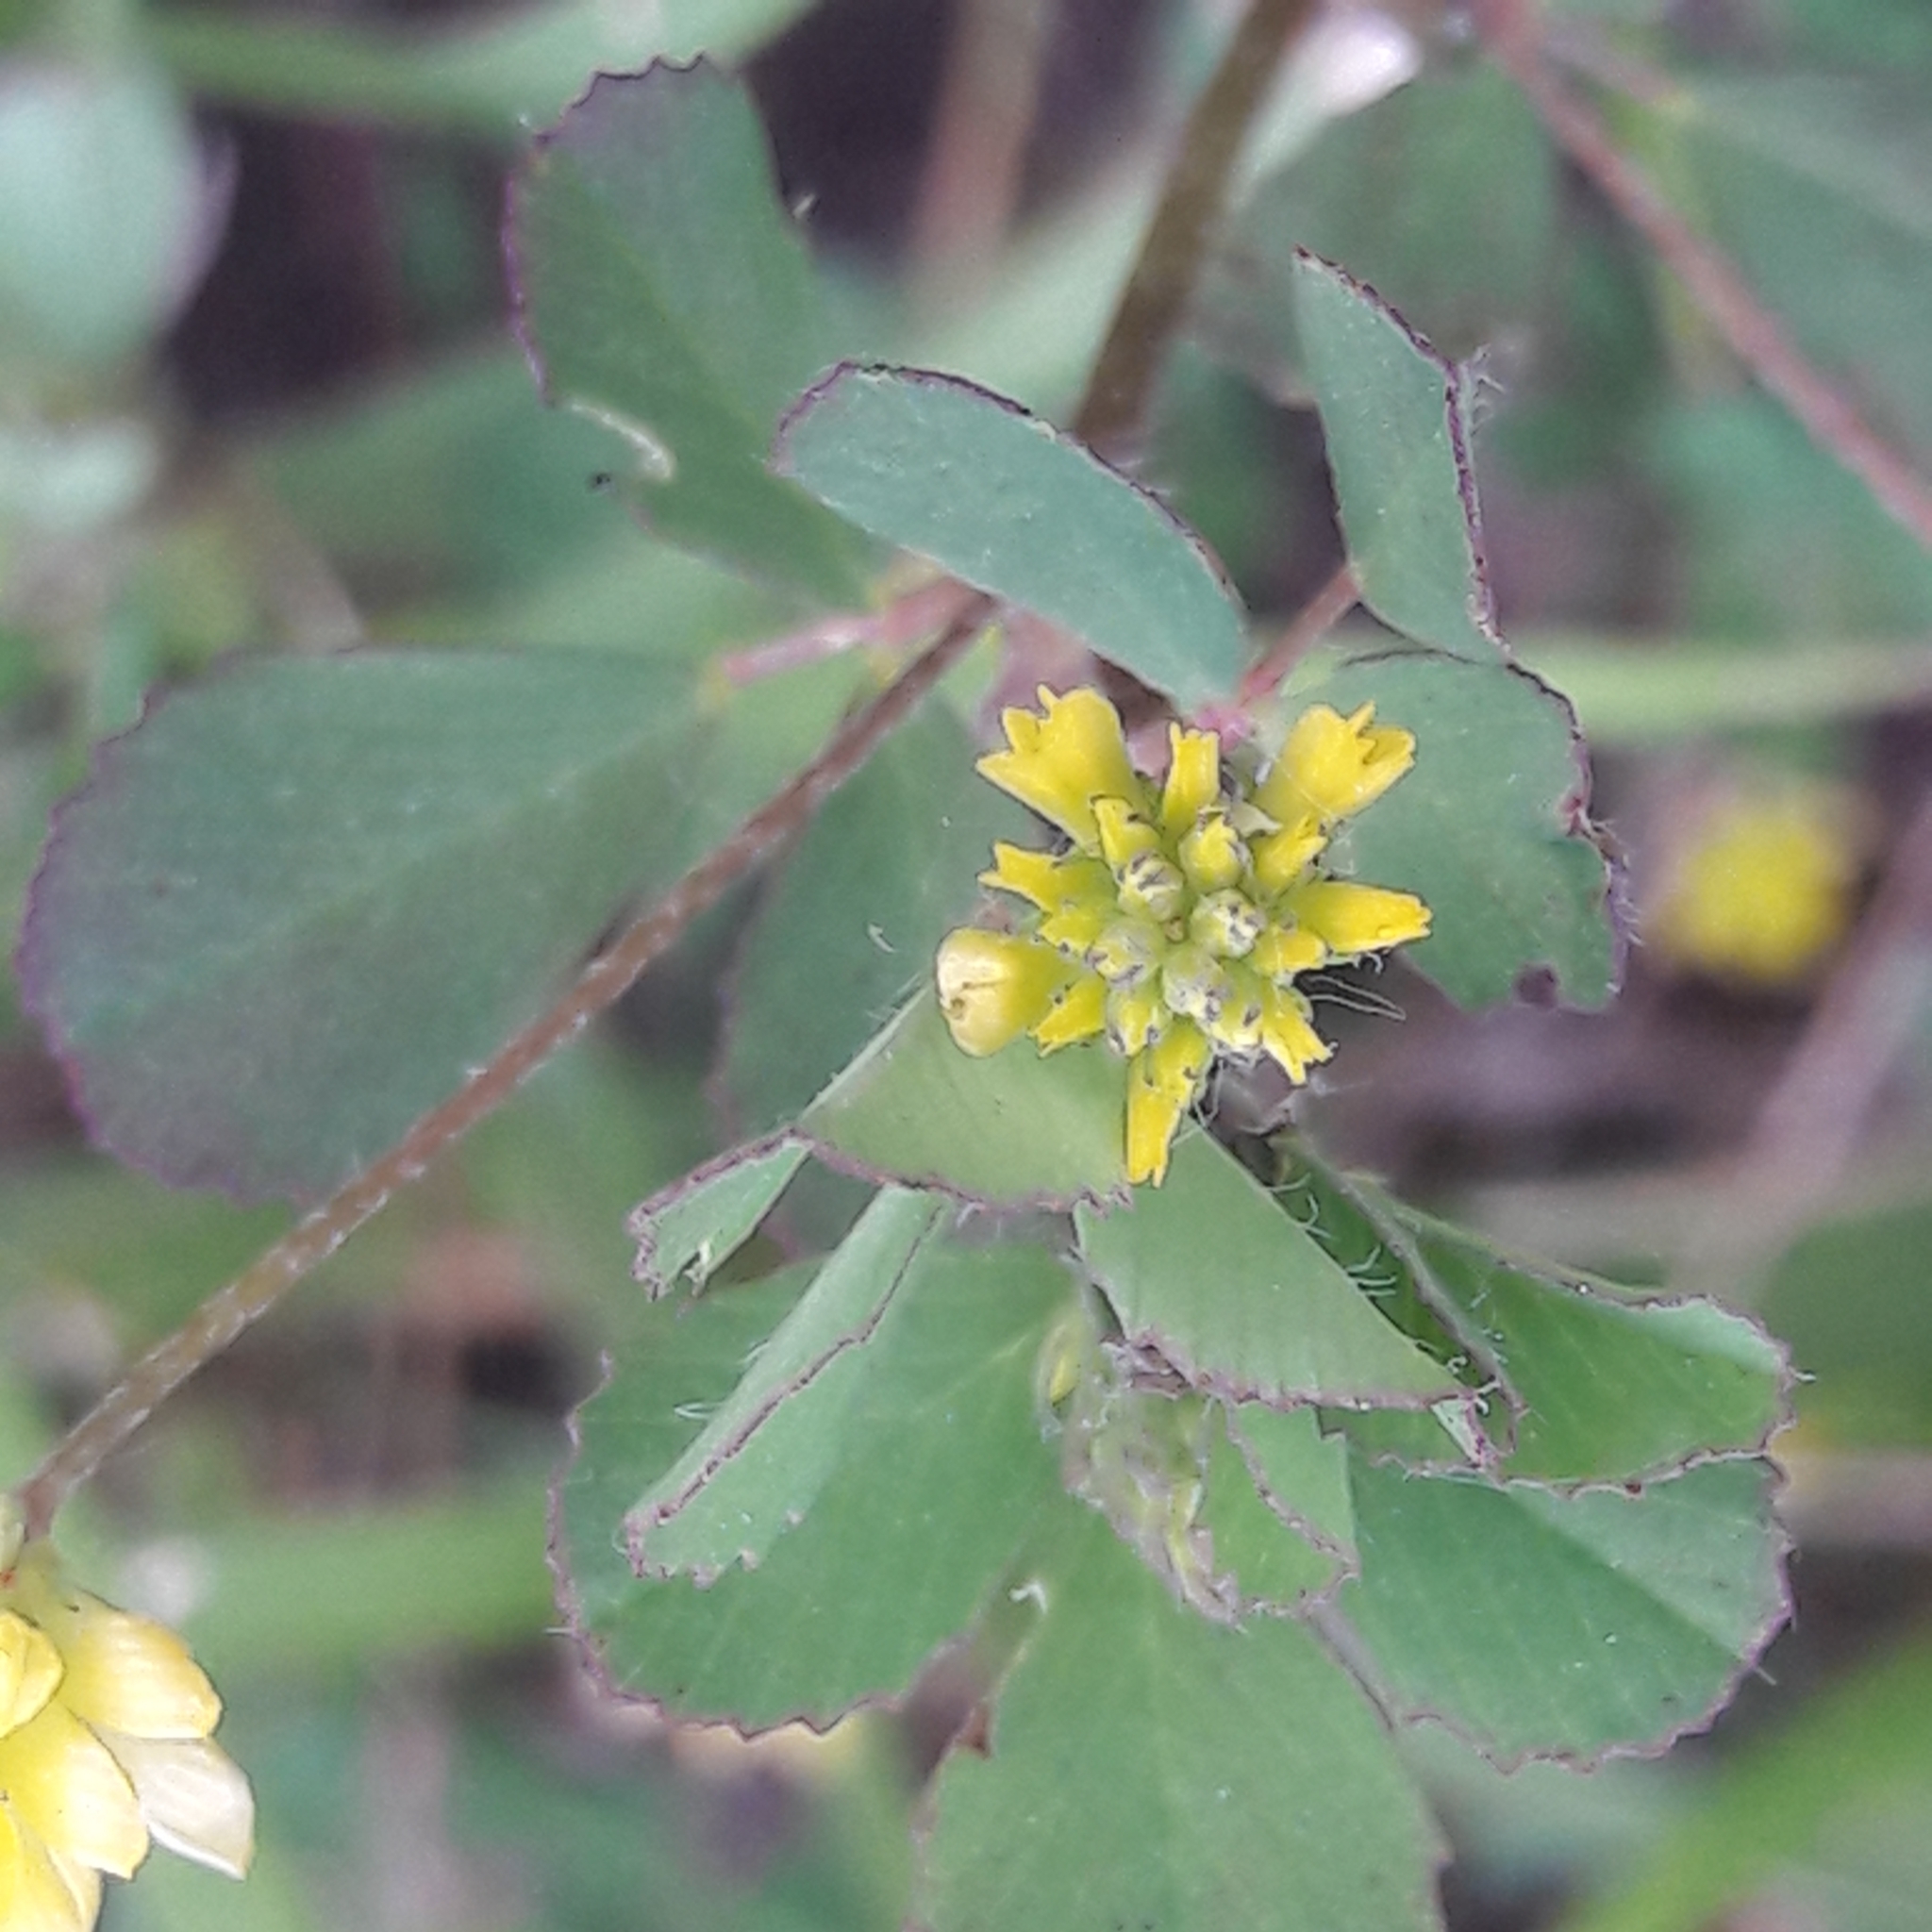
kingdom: Plantae
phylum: Tracheophyta
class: Magnoliopsida
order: Fabales
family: Fabaceae
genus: Trifolium
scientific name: Trifolium dubium
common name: Suckling clover
